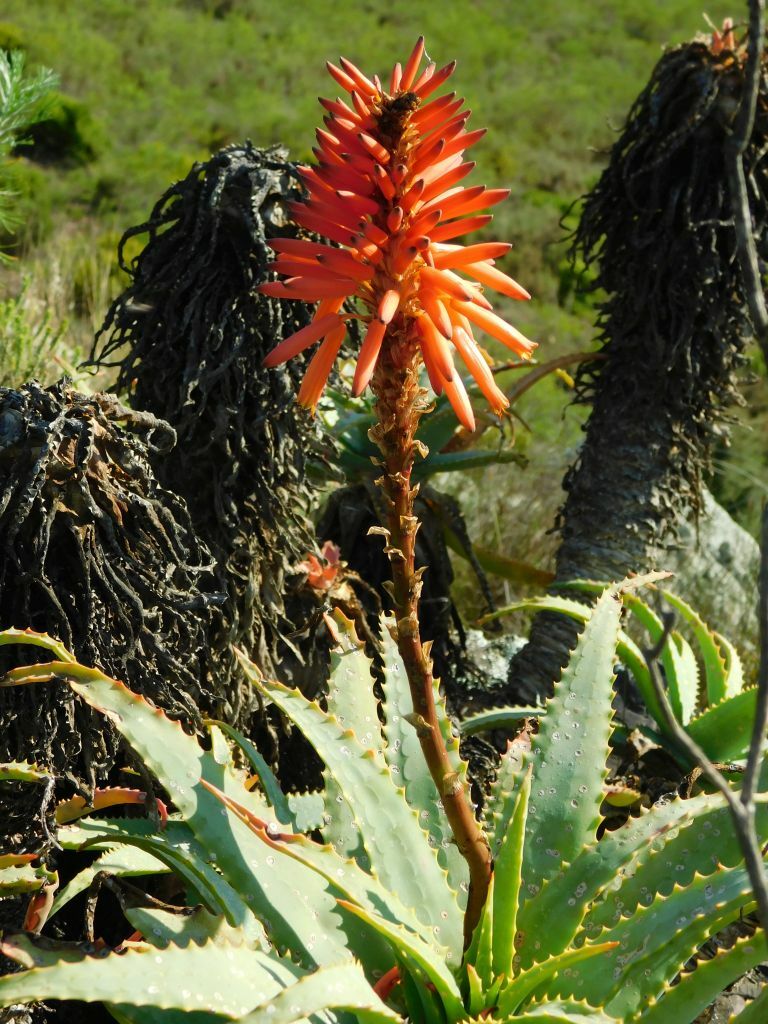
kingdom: Plantae
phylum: Tracheophyta
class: Liliopsida
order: Asparagales
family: Asphodelaceae
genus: Aloe
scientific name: Aloe arborescens
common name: Candelabra aloe
